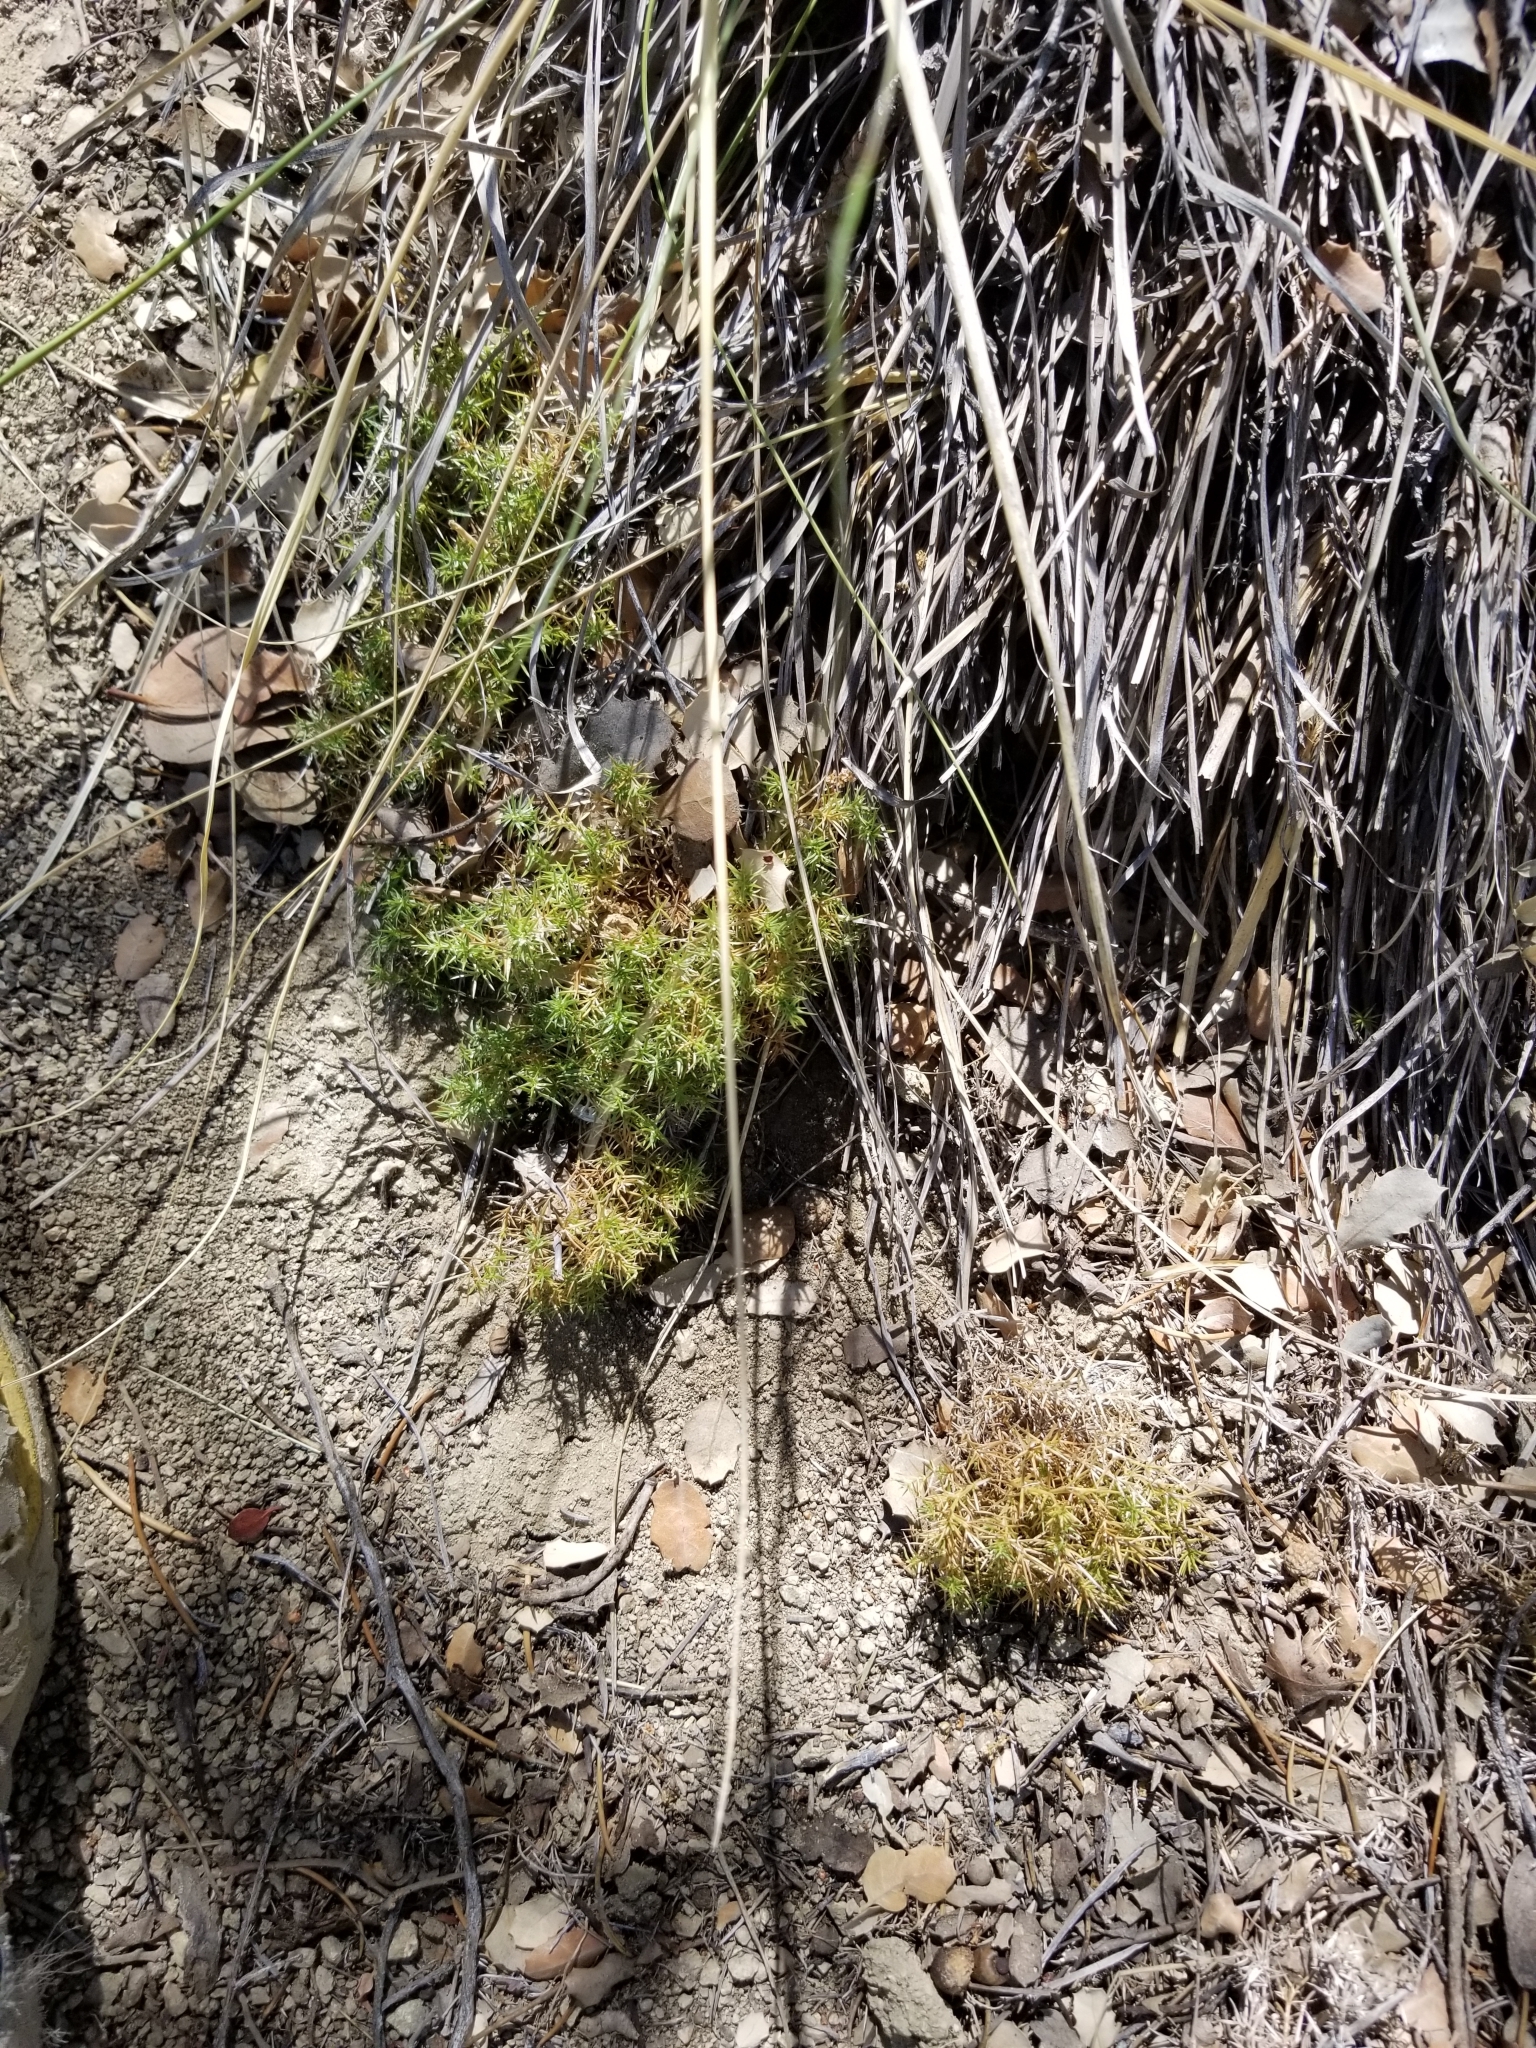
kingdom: Plantae
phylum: Tracheophyta
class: Magnoliopsida
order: Gentianales
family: Rubiaceae
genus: Galium
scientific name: Galium andrewsii
